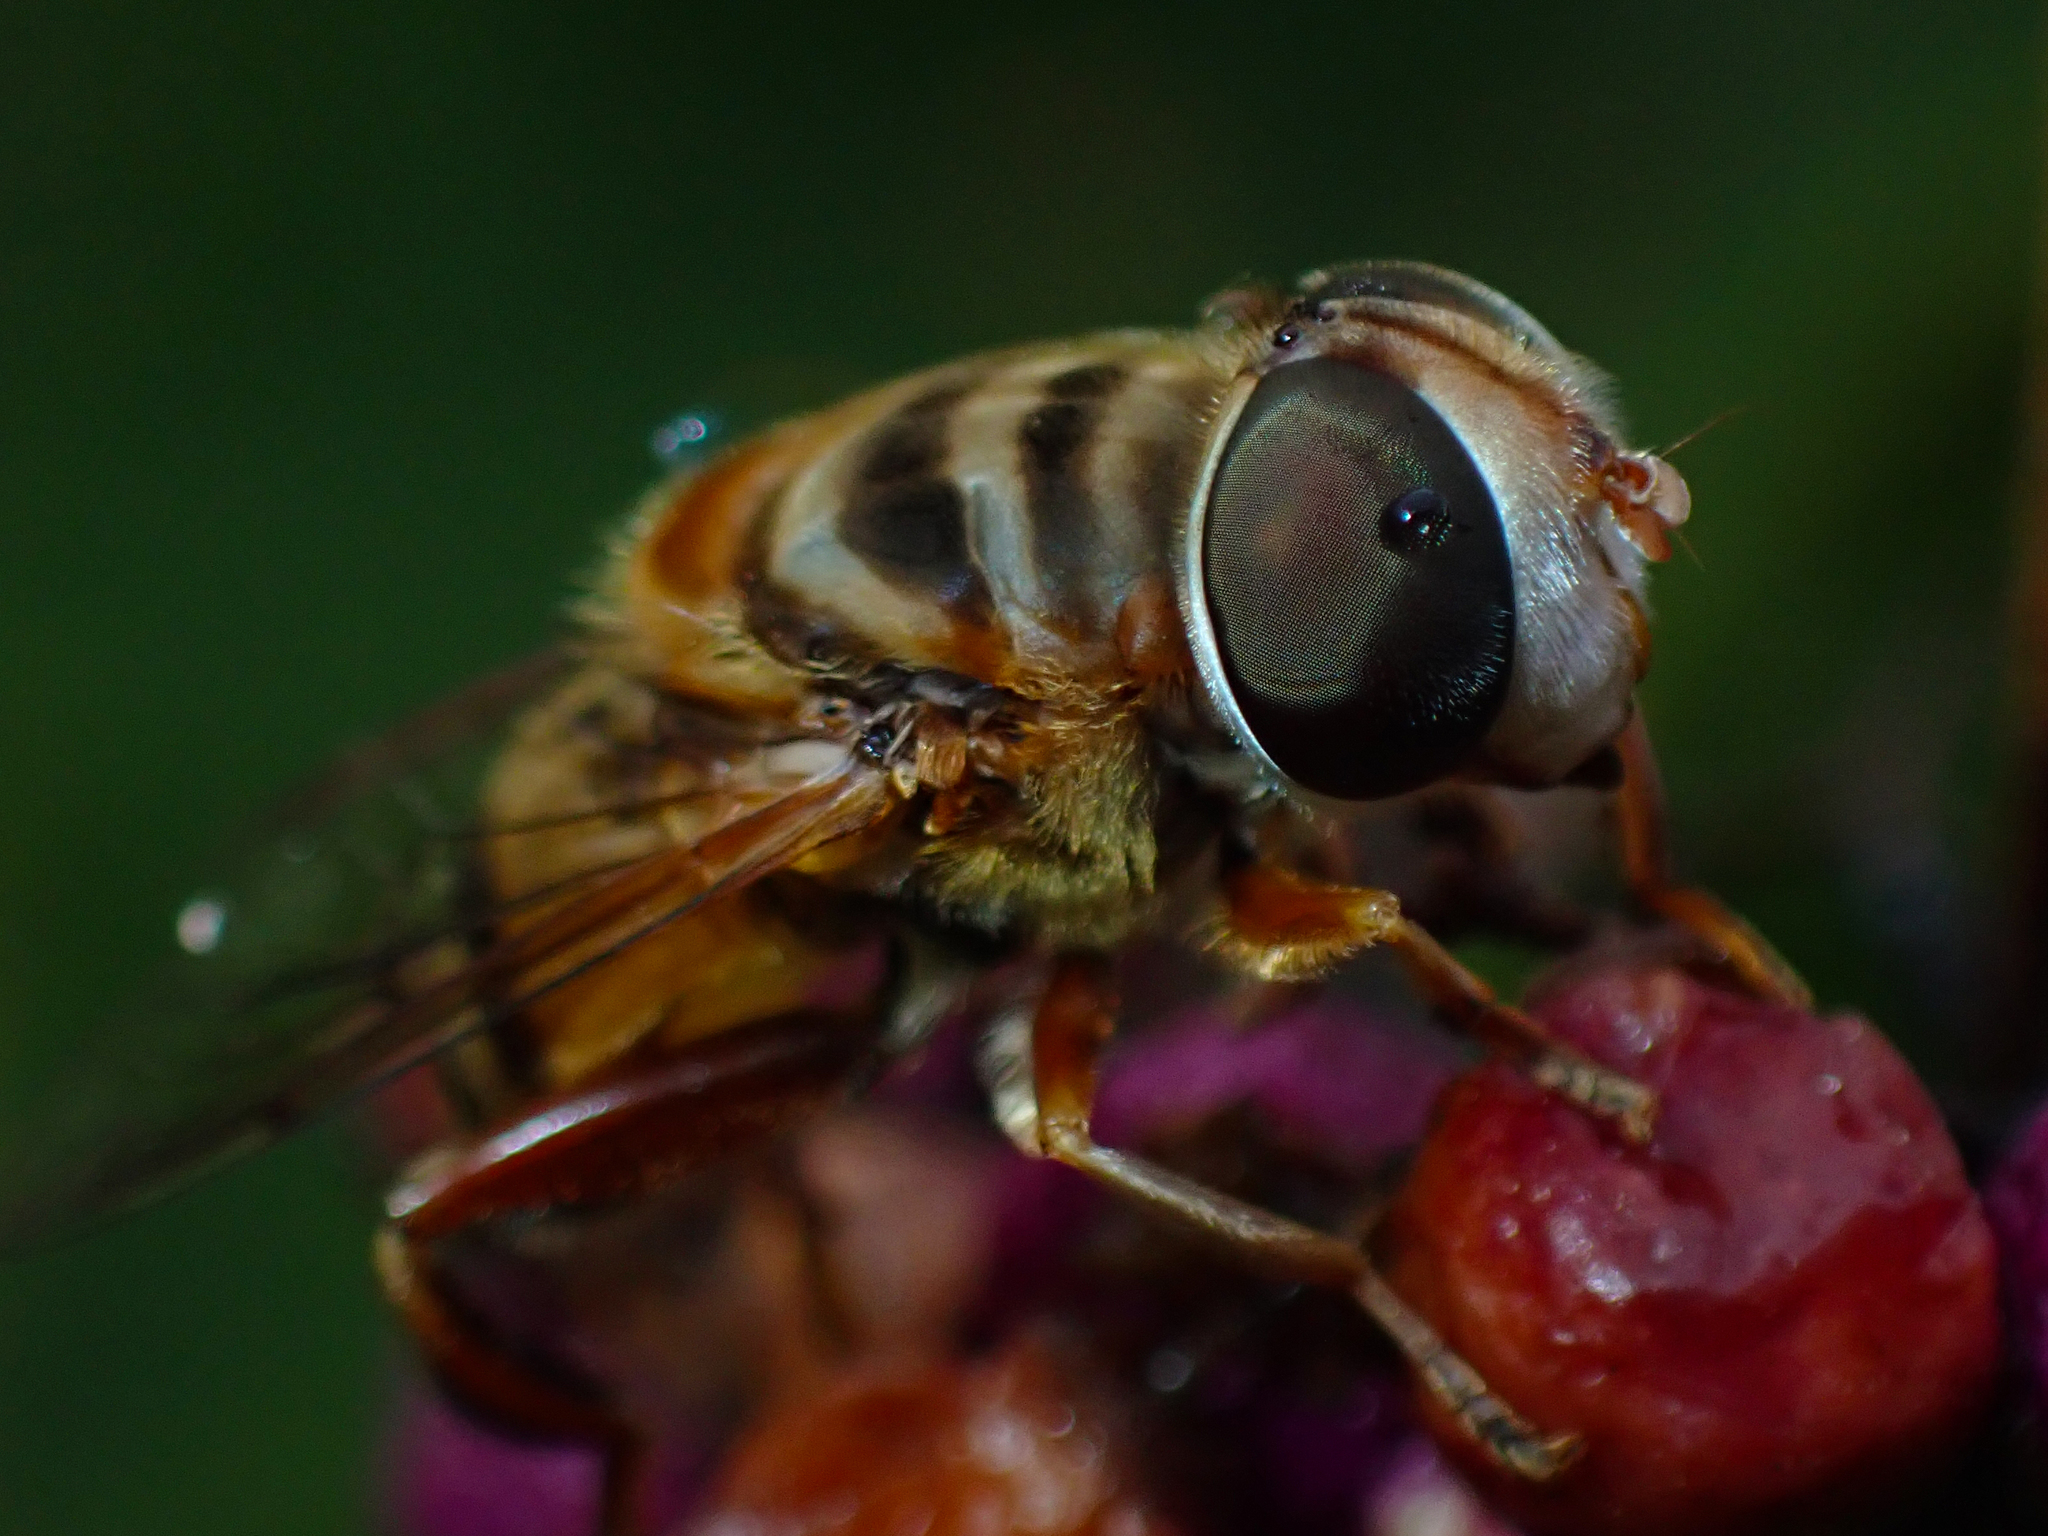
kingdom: Animalia
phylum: Arthropoda
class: Insecta
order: Diptera
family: Syrphidae
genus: Palpada
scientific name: Palpada vinetorum
